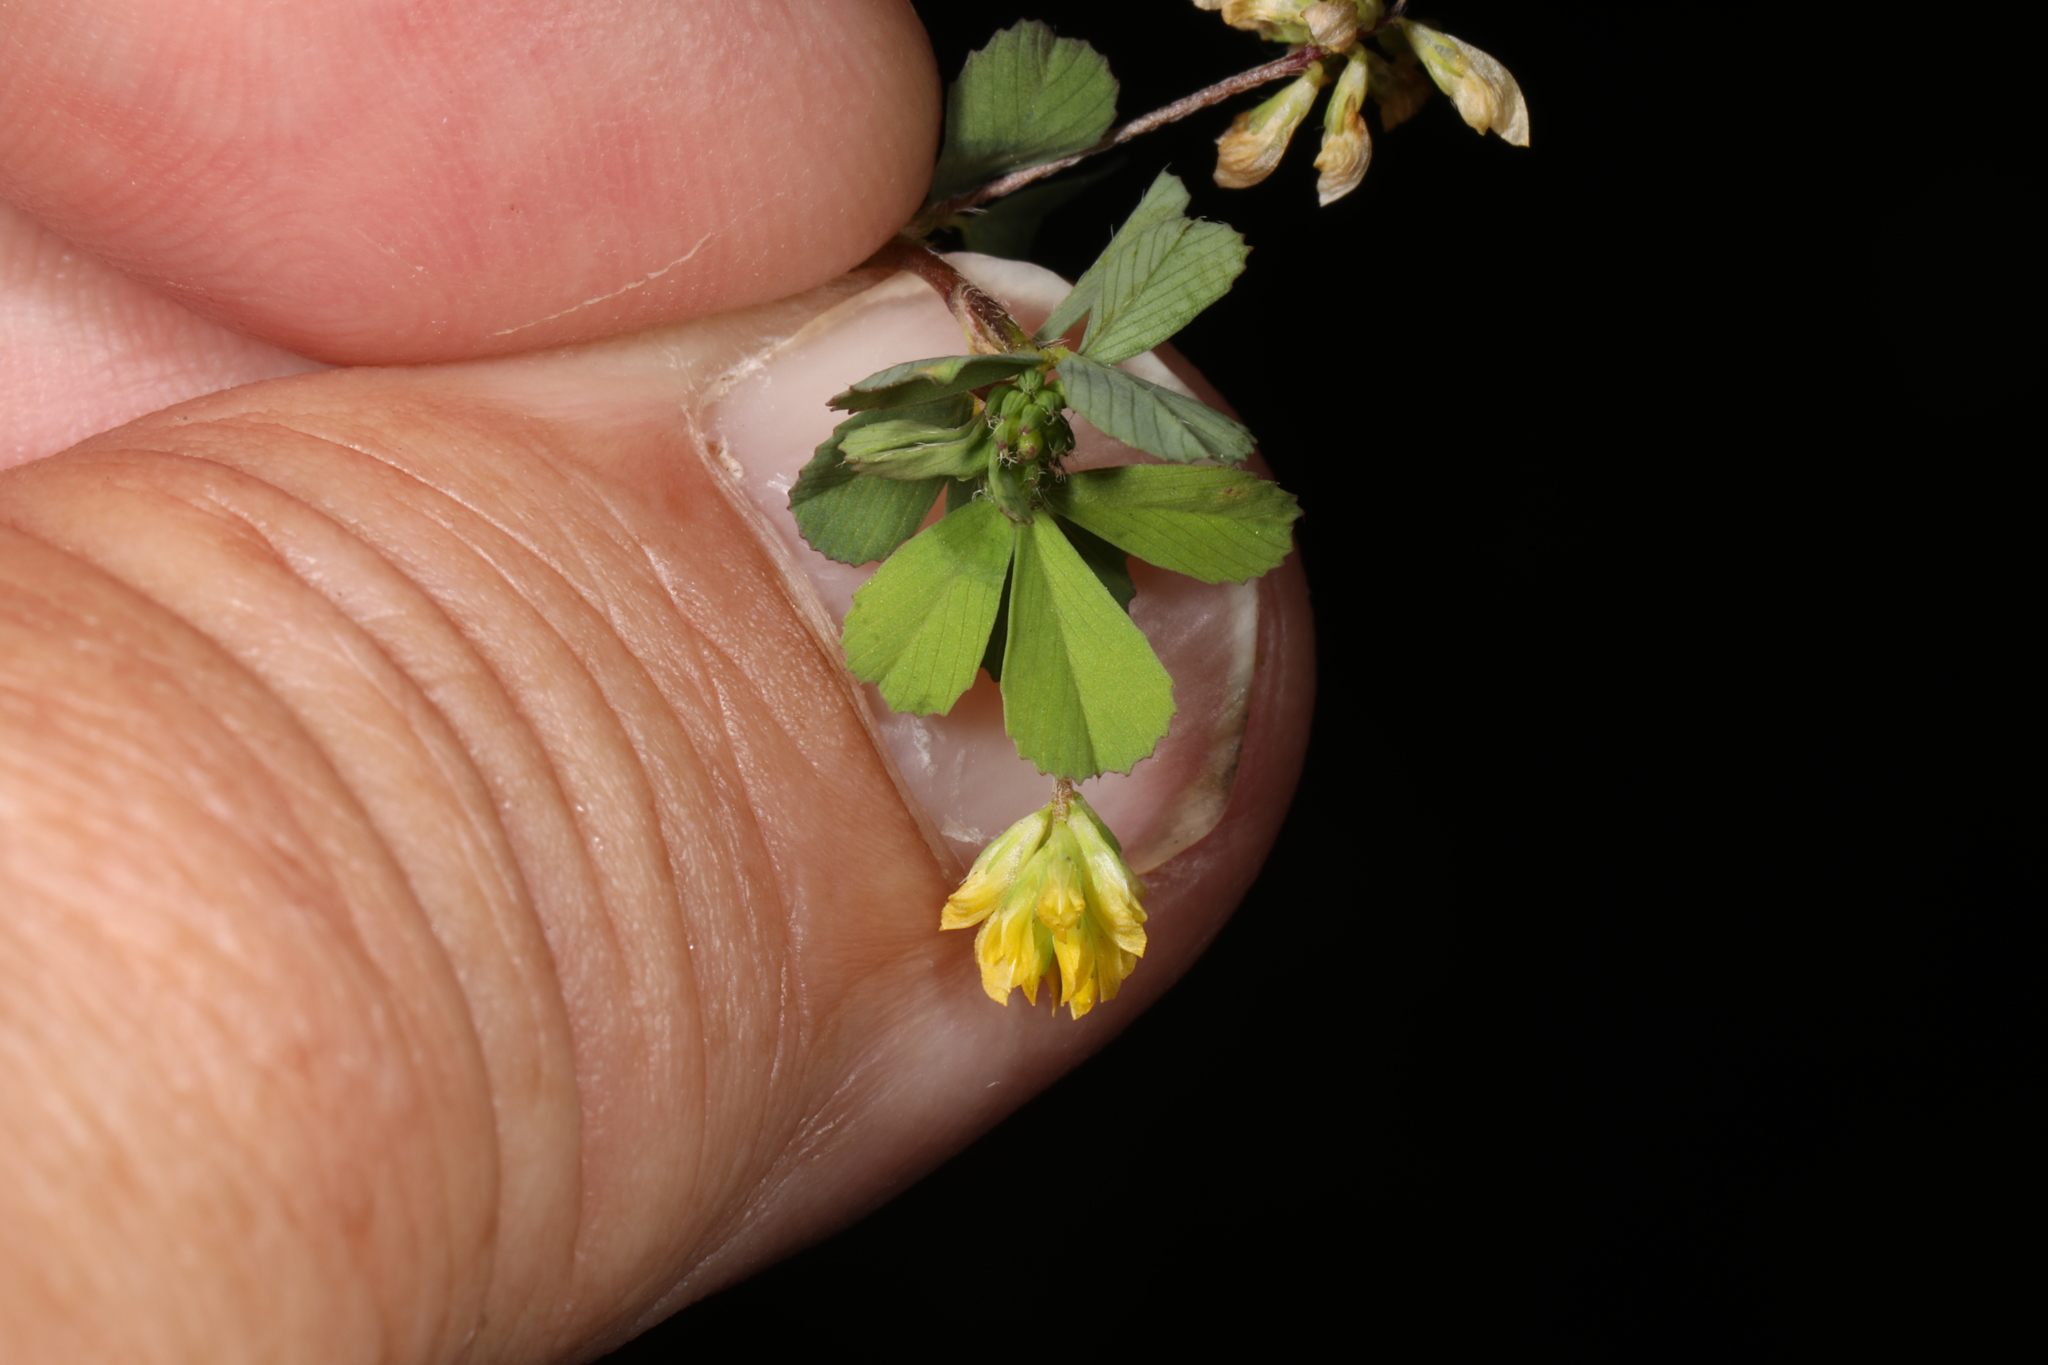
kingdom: Plantae
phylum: Tracheophyta
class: Magnoliopsida
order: Fabales
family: Fabaceae
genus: Trifolium
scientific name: Trifolium dubium
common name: Suckling clover
